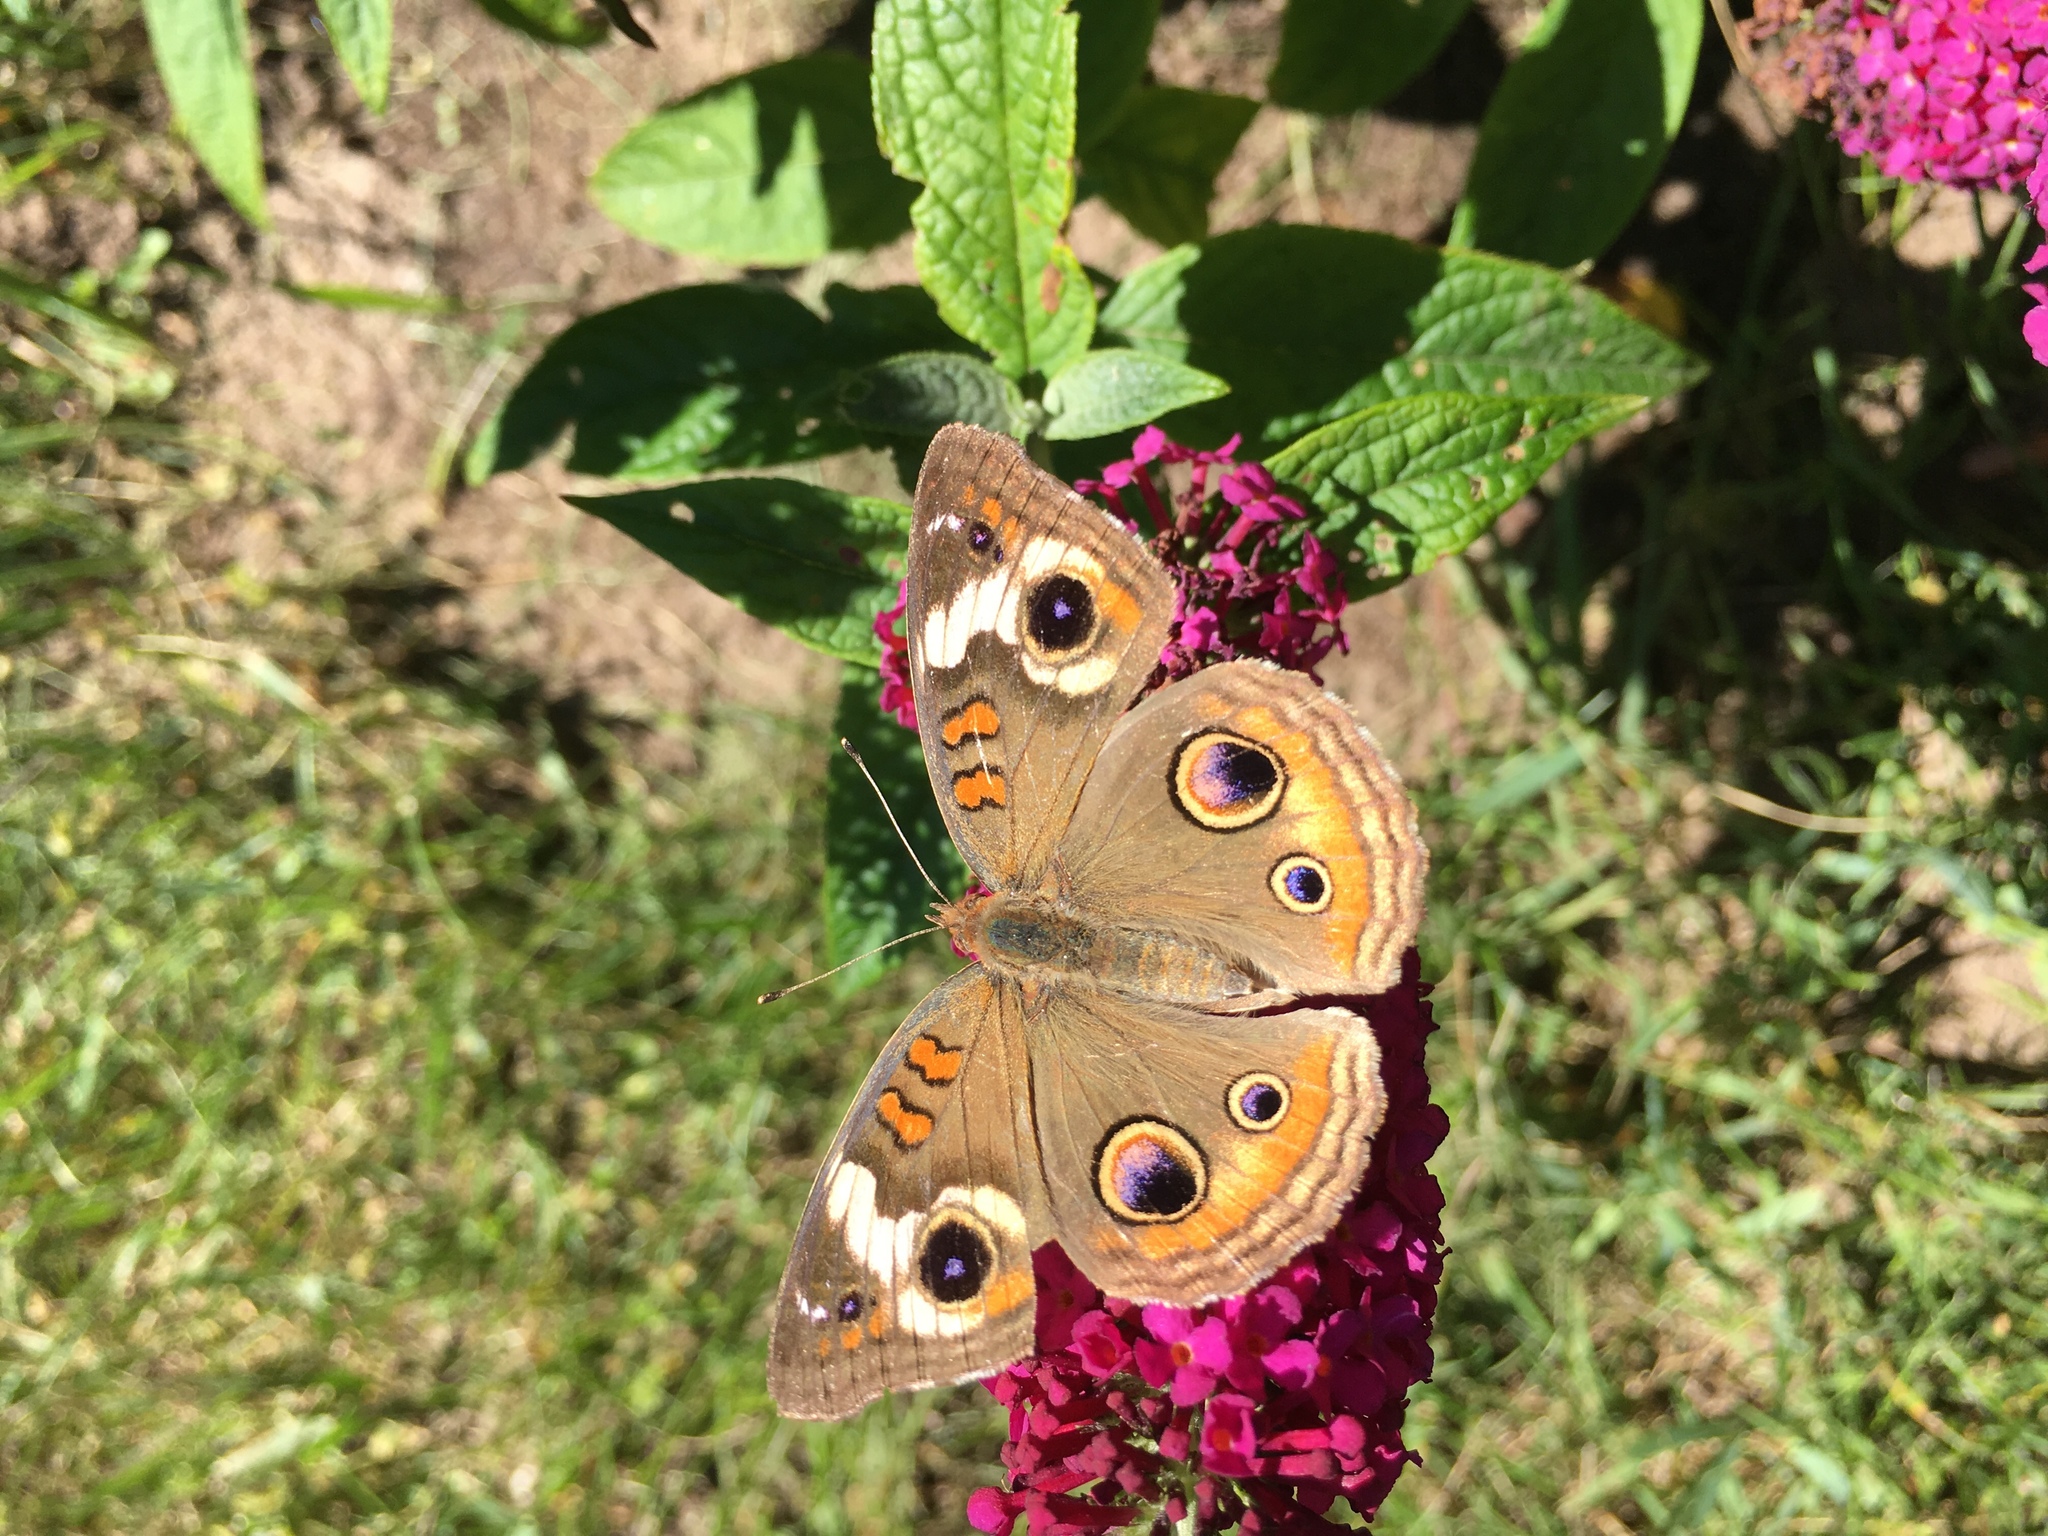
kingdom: Animalia
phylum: Arthropoda
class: Insecta
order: Lepidoptera
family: Nymphalidae
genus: Junonia
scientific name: Junonia coenia
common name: Common buckeye
